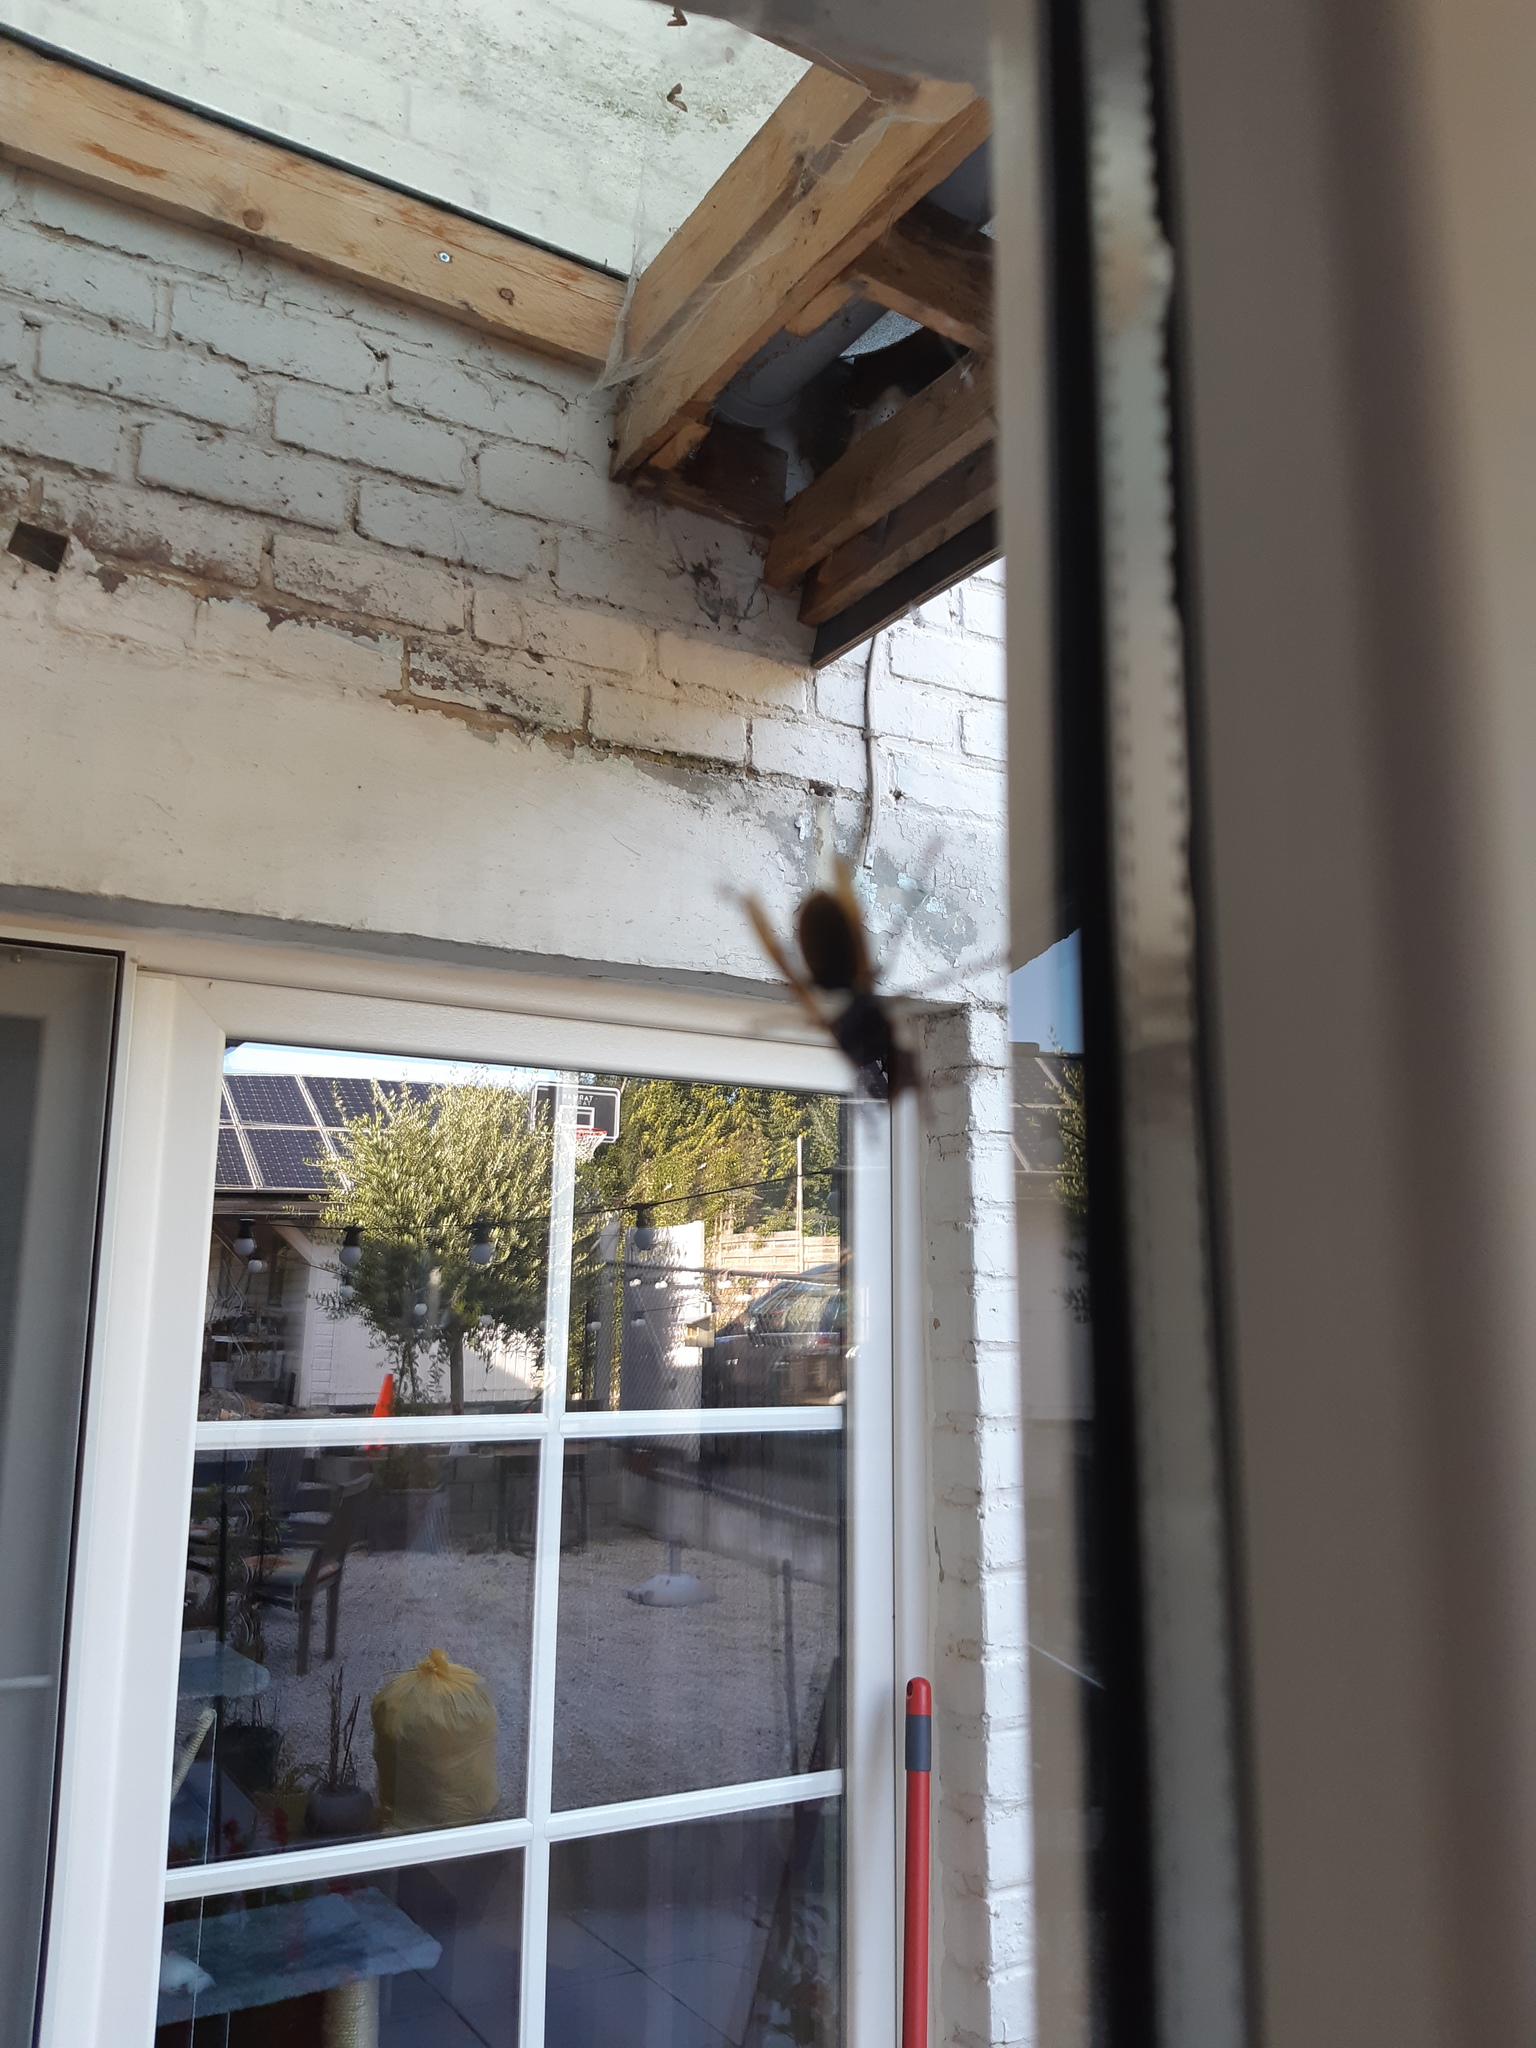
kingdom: Animalia
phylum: Arthropoda
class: Insecta
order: Hymenoptera
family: Vespidae
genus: Vespa
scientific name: Vespa crabro
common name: Hornet
